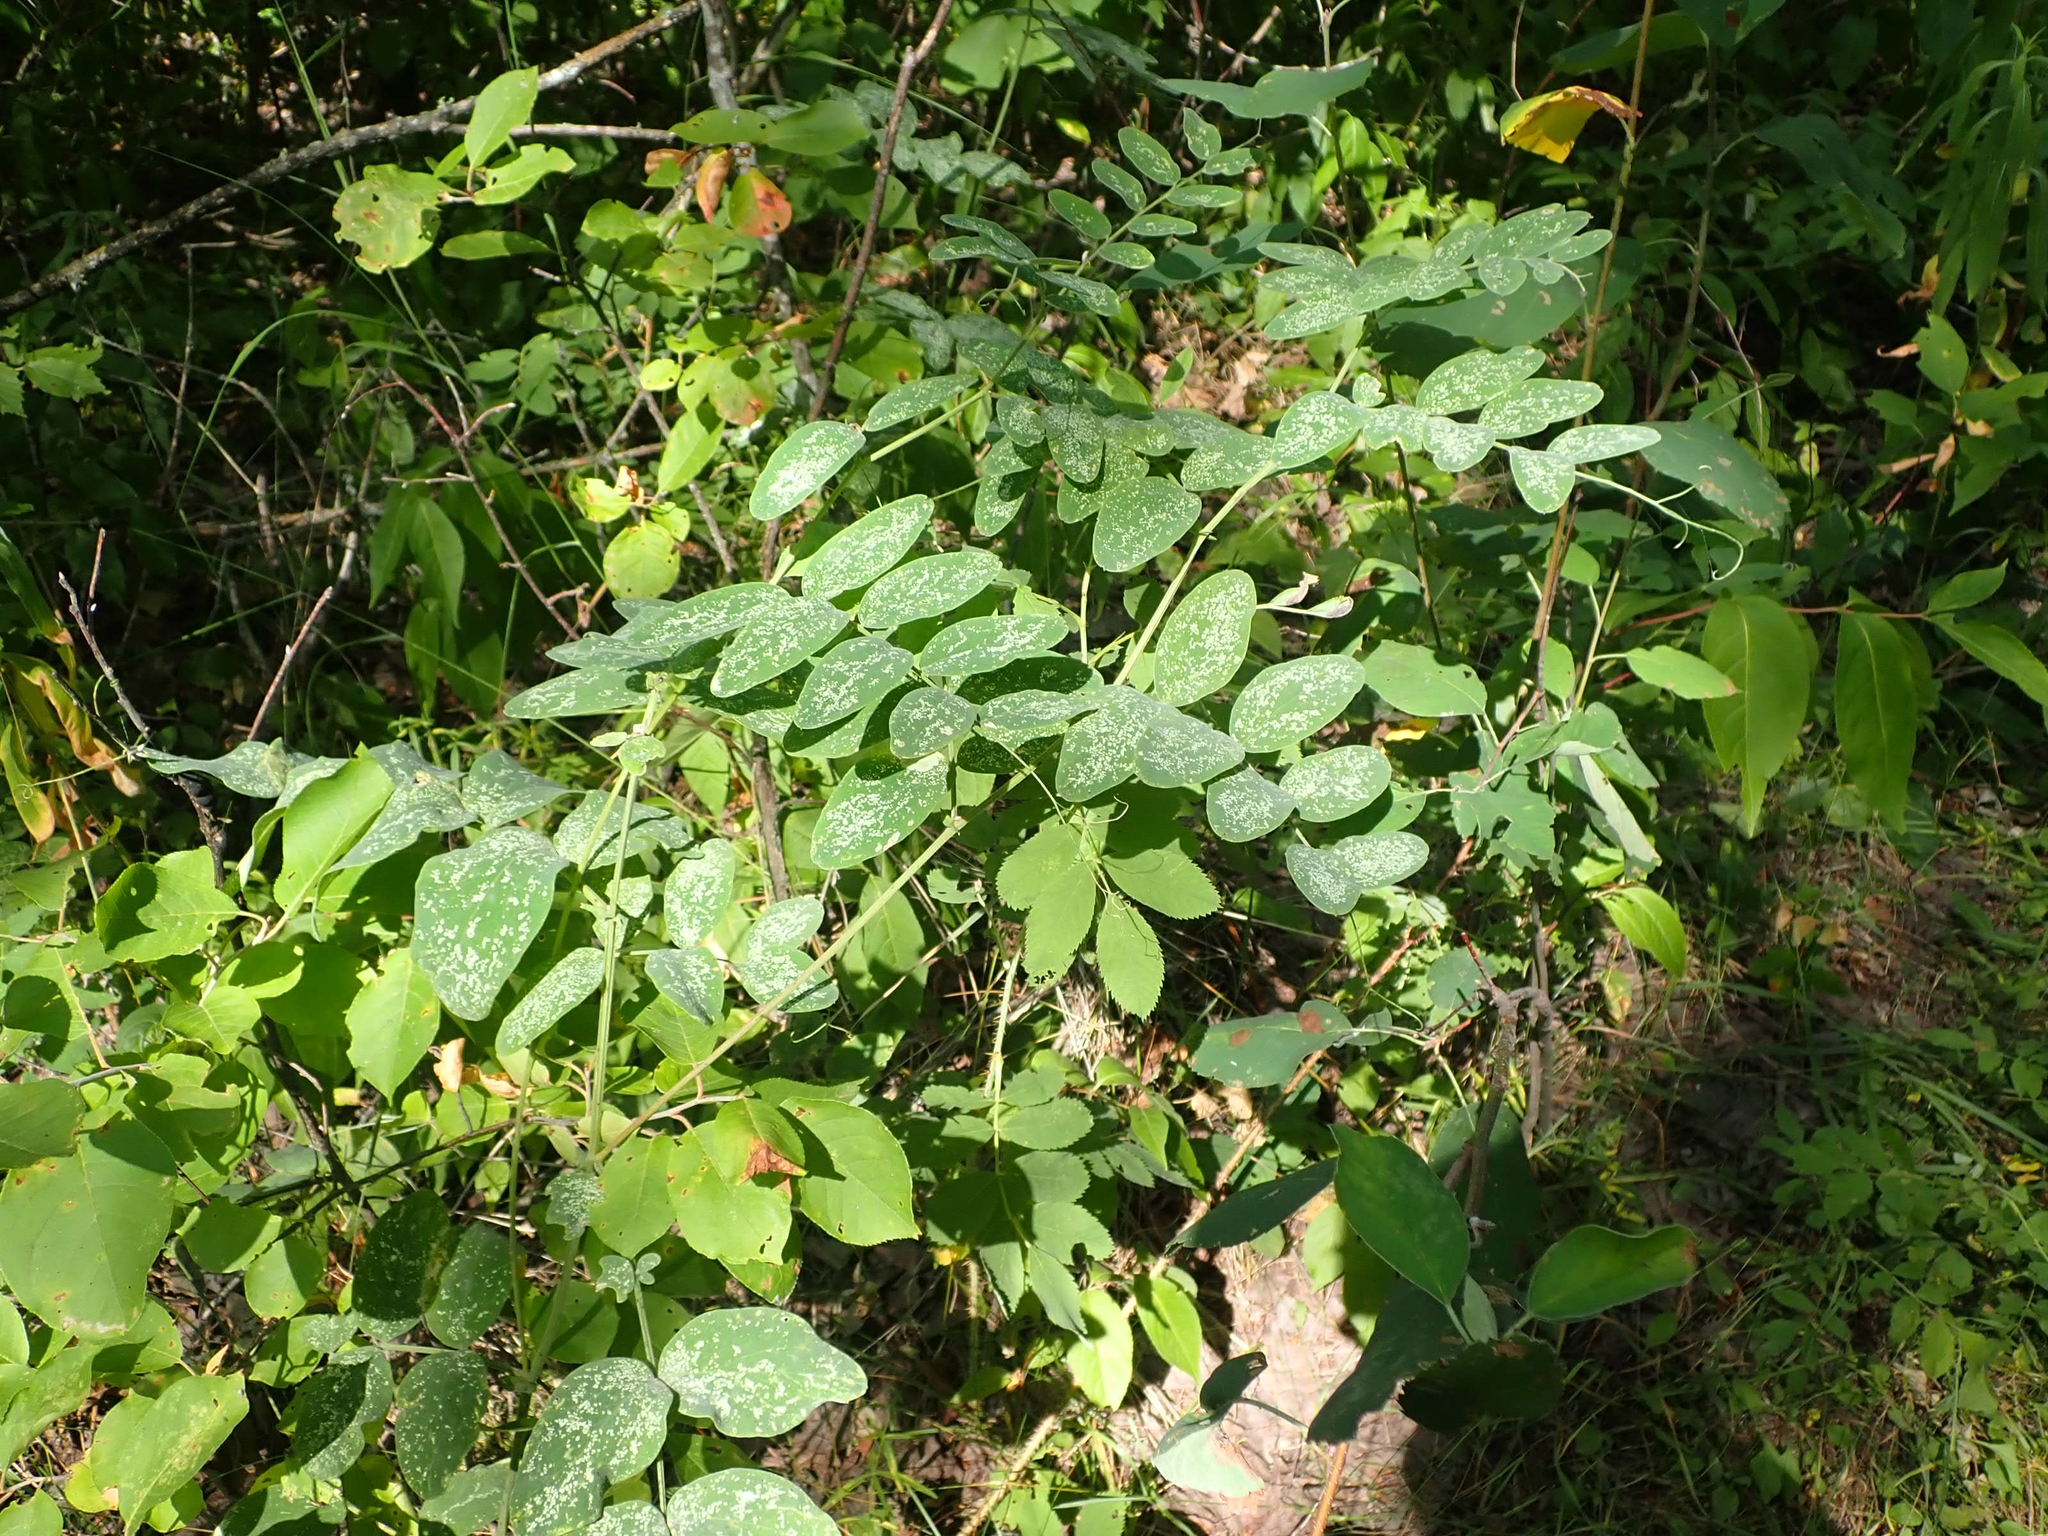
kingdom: Plantae
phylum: Tracheophyta
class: Magnoliopsida
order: Fabales
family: Fabaceae
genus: Lathyrus
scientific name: Lathyrus venosus
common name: Forest-pea
